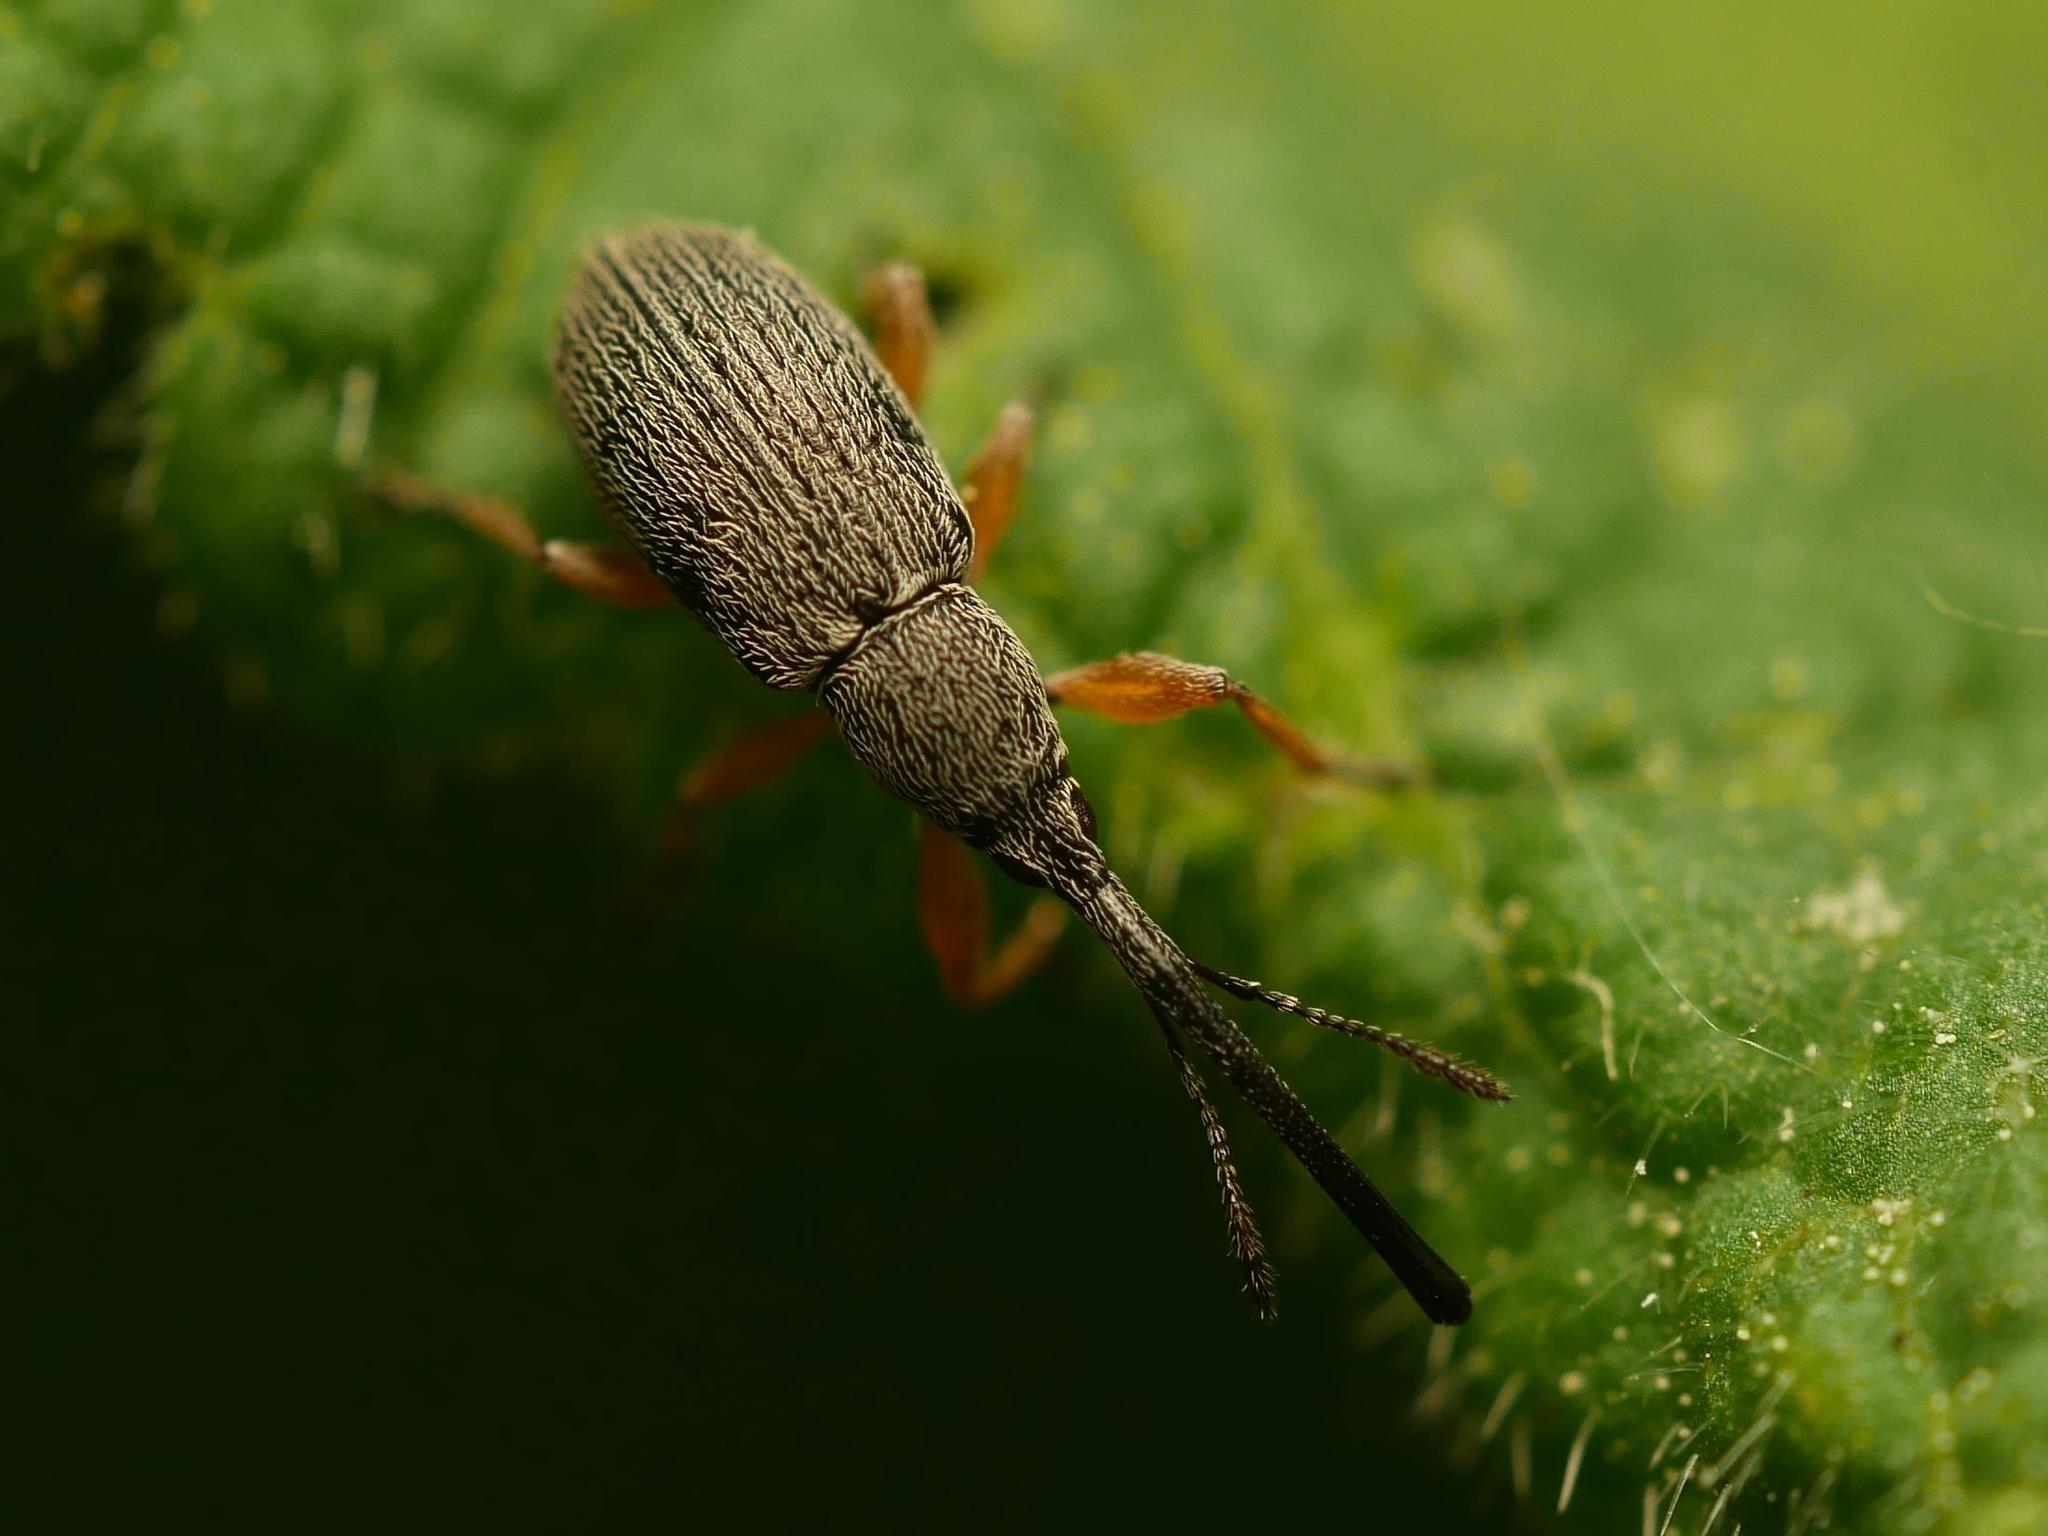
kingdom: Animalia
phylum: Arthropoda
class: Insecta
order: Coleoptera
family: Brentidae
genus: Rhopalapion
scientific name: Rhopalapion longirostre
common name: Hollyhock weevil
